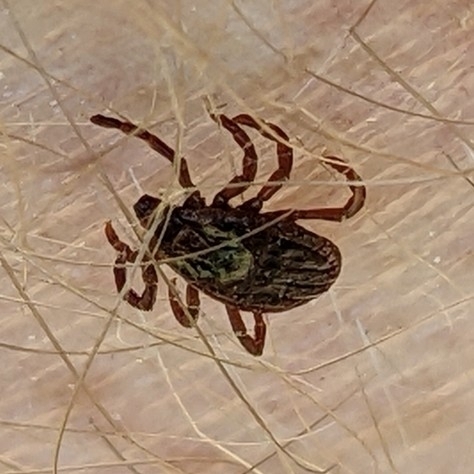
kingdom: Animalia
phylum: Arthropoda
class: Arachnida
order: Ixodida
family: Ixodidae
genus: Dermacentor
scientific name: Dermacentor variabilis
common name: American dog tick
